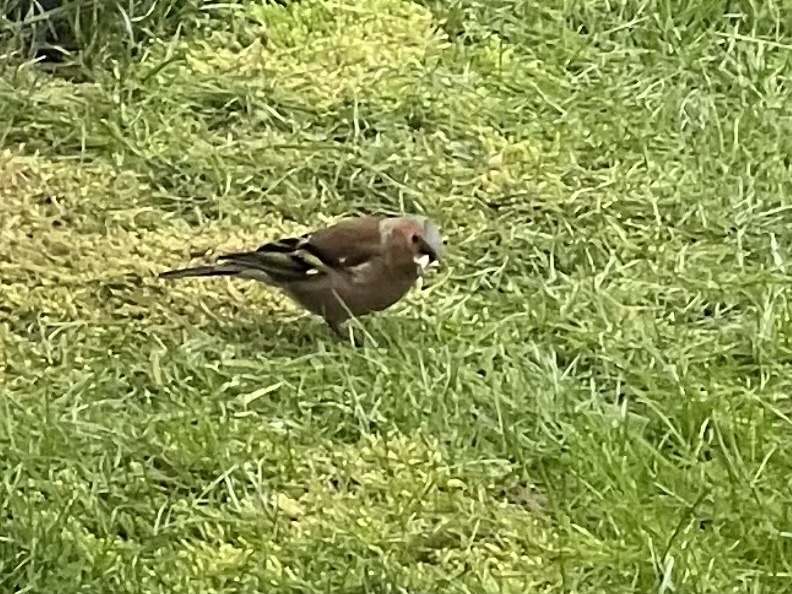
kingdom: Animalia
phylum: Chordata
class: Aves
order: Passeriformes
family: Fringillidae
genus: Fringilla
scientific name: Fringilla coelebs
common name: Common chaffinch
